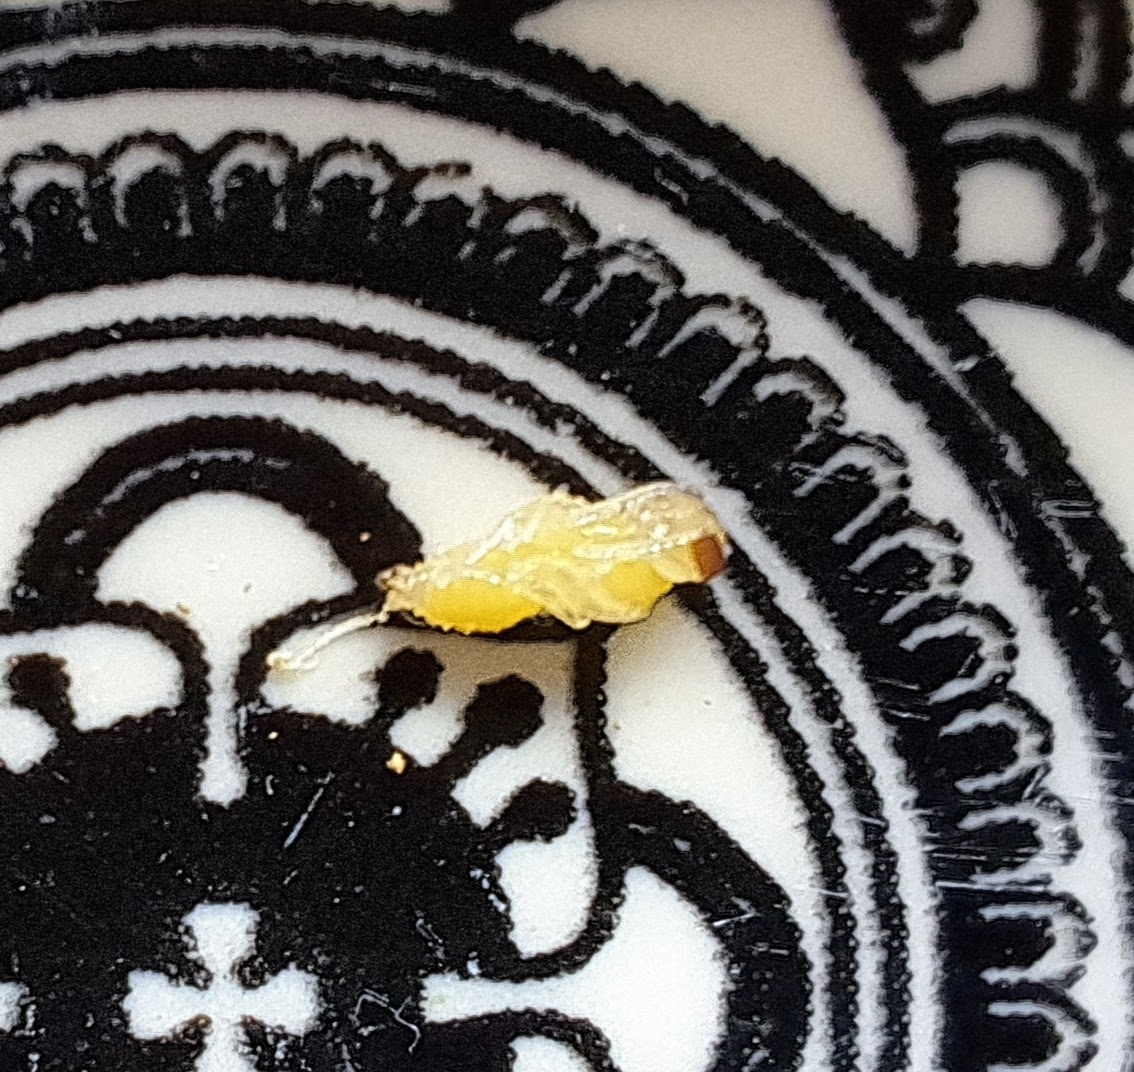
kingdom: Animalia
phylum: Arthropoda
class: Insecta
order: Hymenoptera
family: Crabronidae
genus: Pison
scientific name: Pison peletieri
